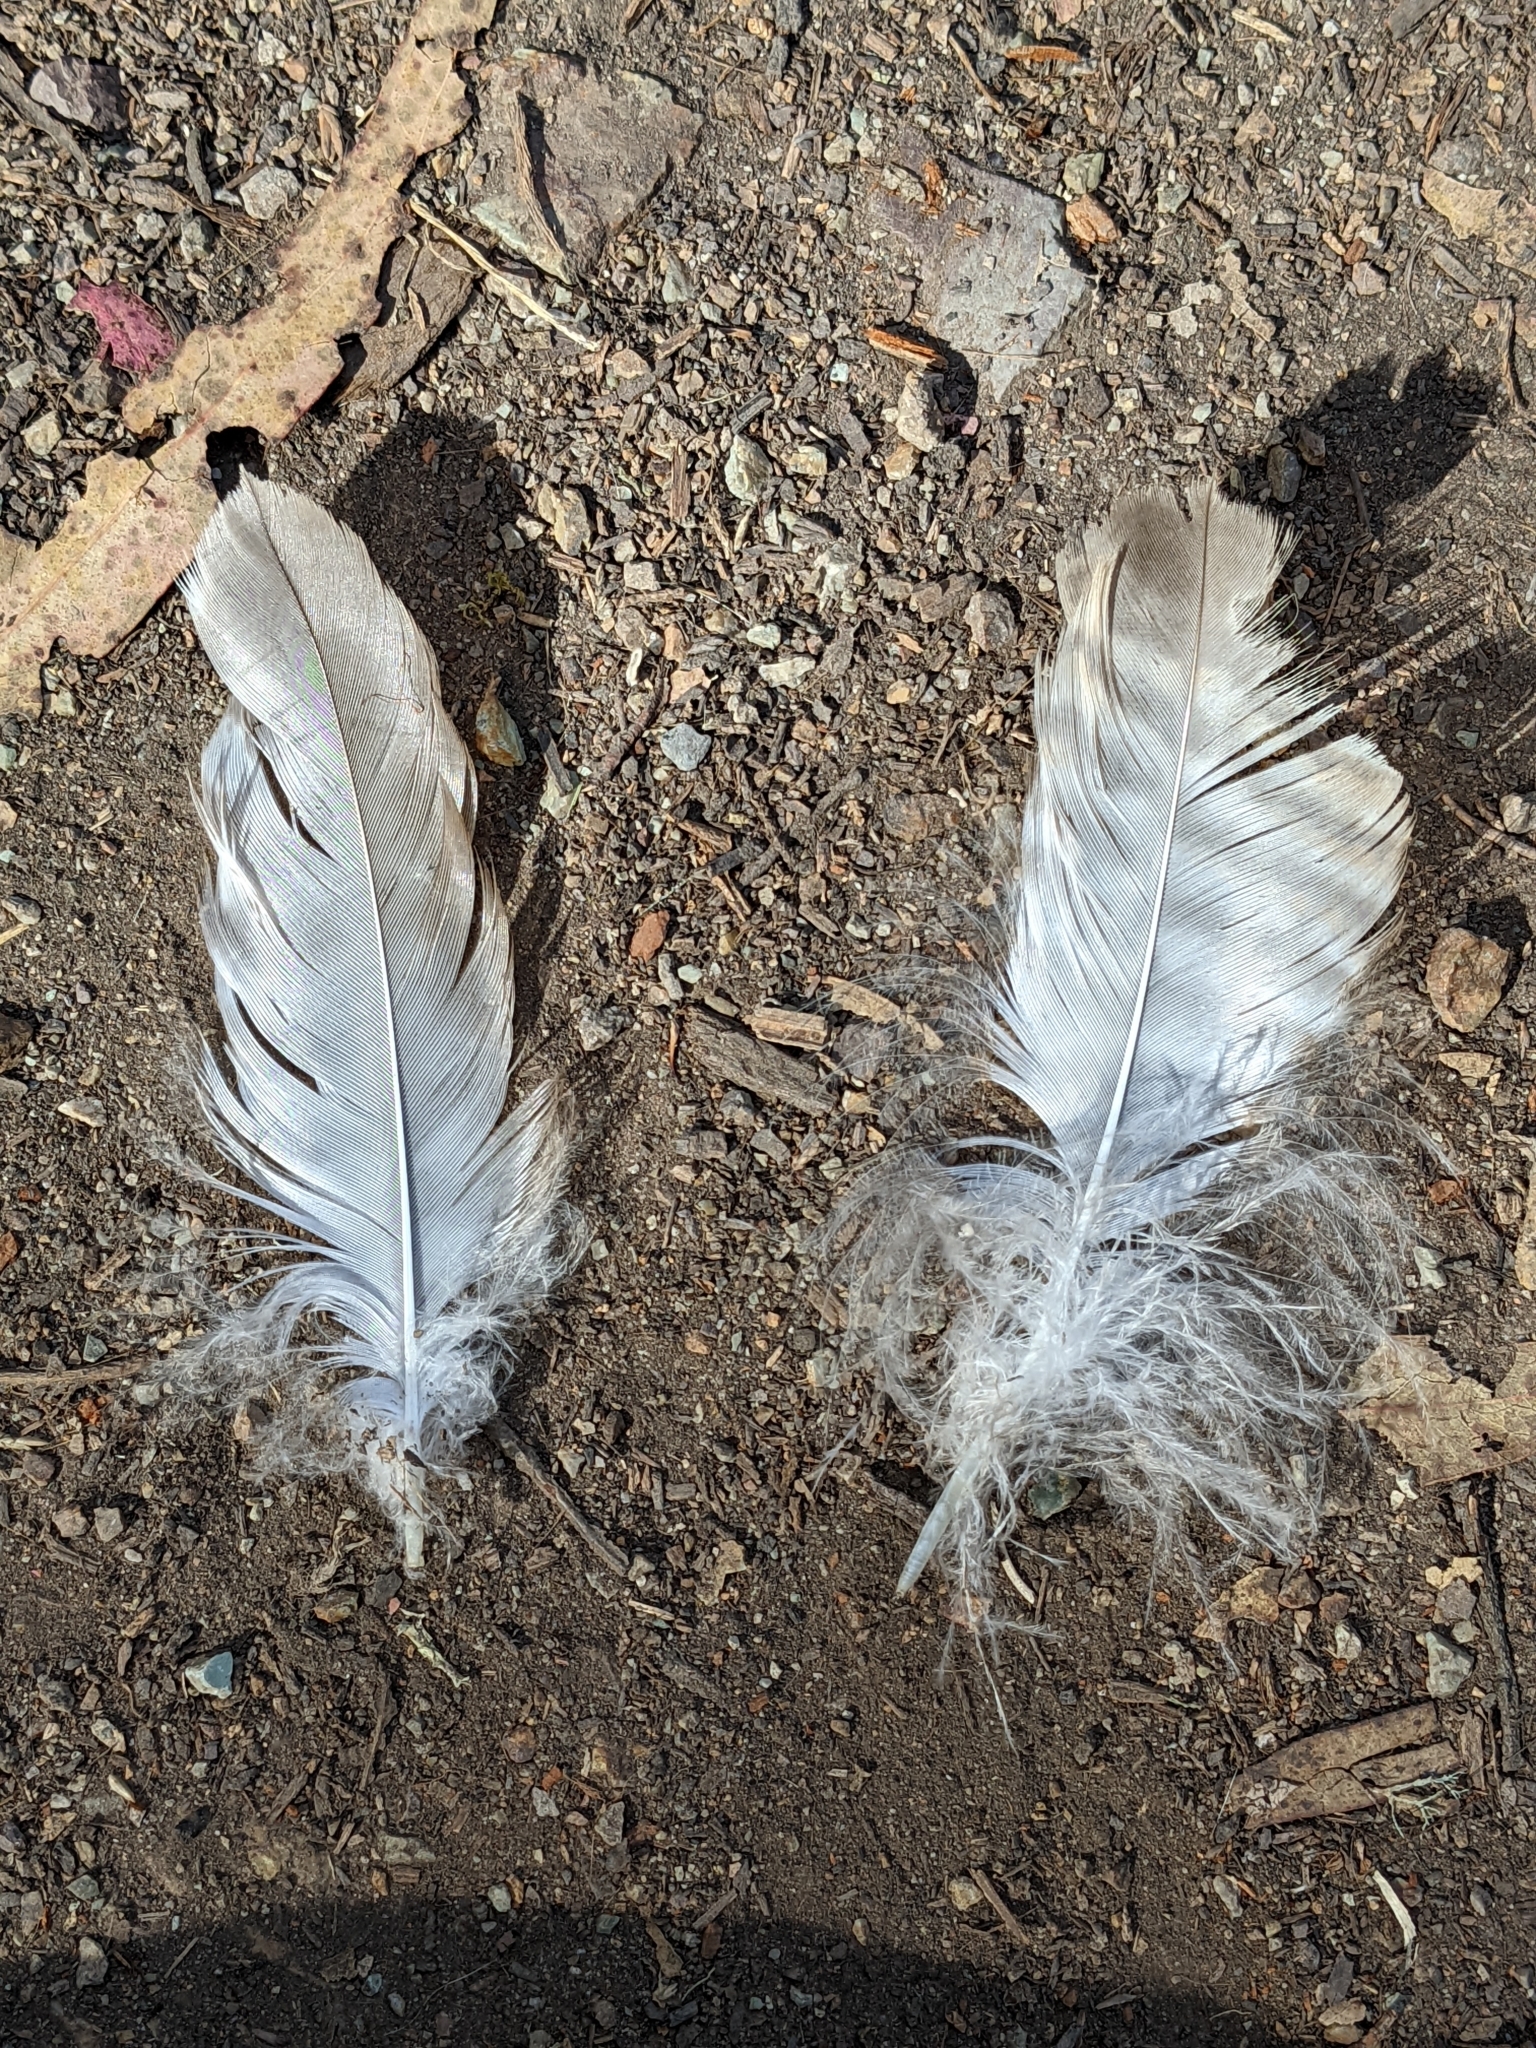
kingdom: Animalia
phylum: Chordata
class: Aves
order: Accipitriformes
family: Accipitridae
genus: Buteo
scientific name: Buteo jamaicensis
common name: Red-tailed hawk
